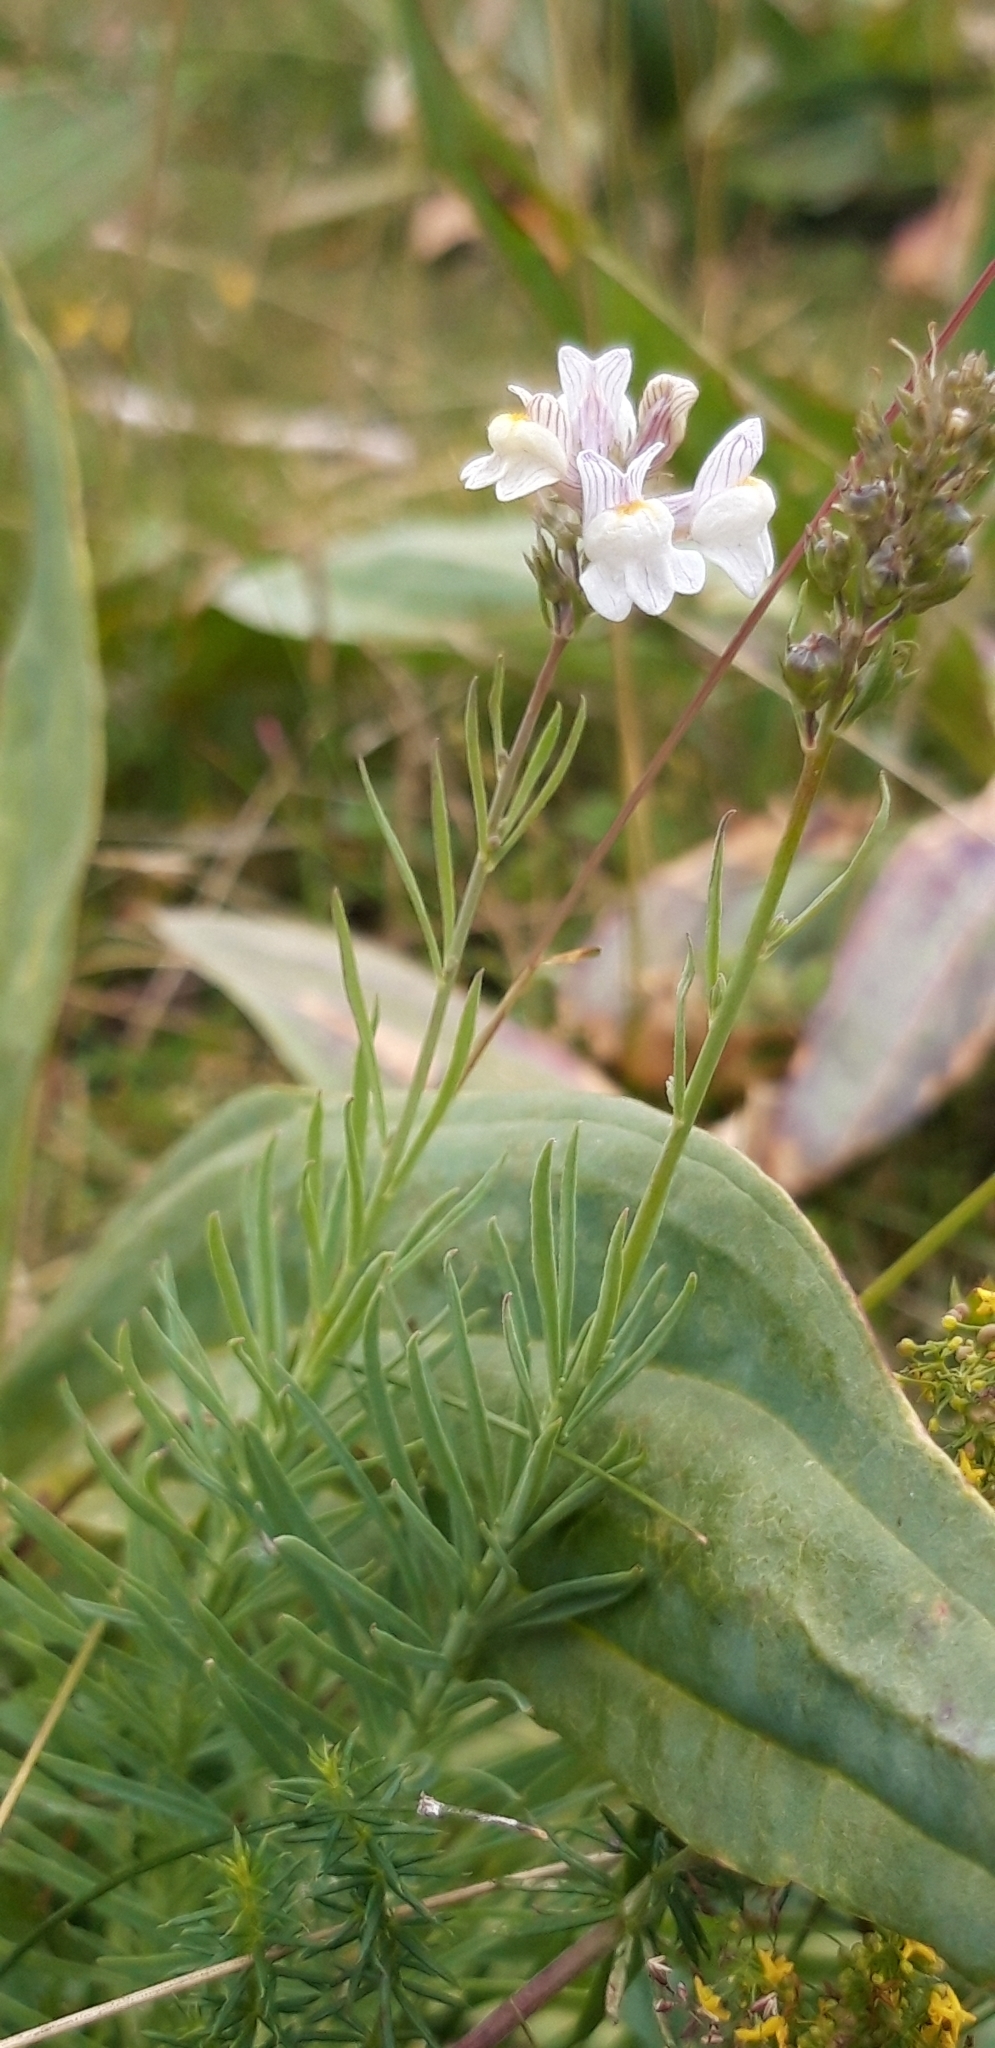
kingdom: Plantae
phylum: Tracheophyta
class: Magnoliopsida
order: Lamiales
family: Plantaginaceae
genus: Linaria
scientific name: Linaria repens
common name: Pale toadflax
